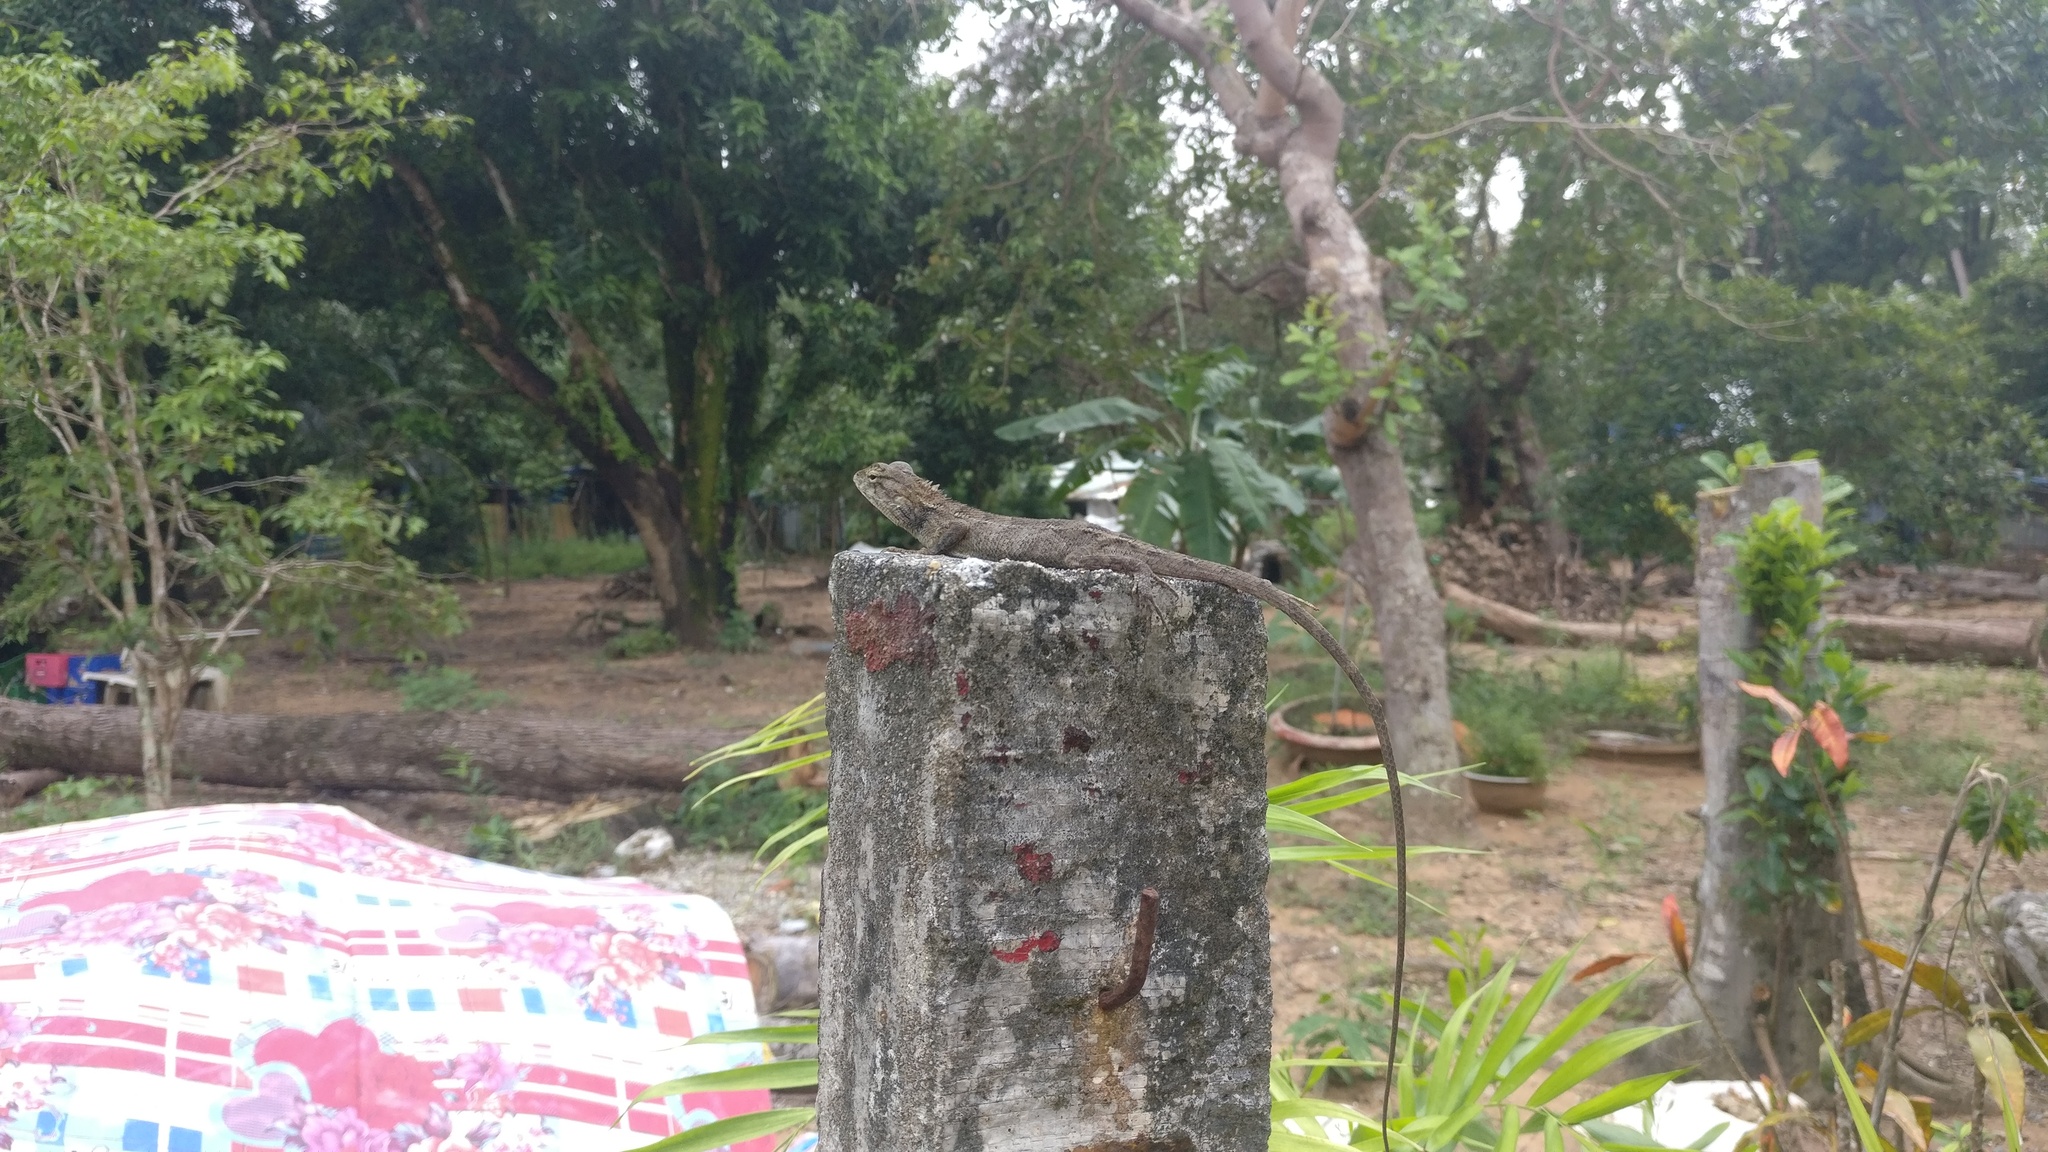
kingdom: Animalia
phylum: Chordata
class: Squamata
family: Agamidae
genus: Calotes
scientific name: Calotes versicolor
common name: Oriental garden lizard
